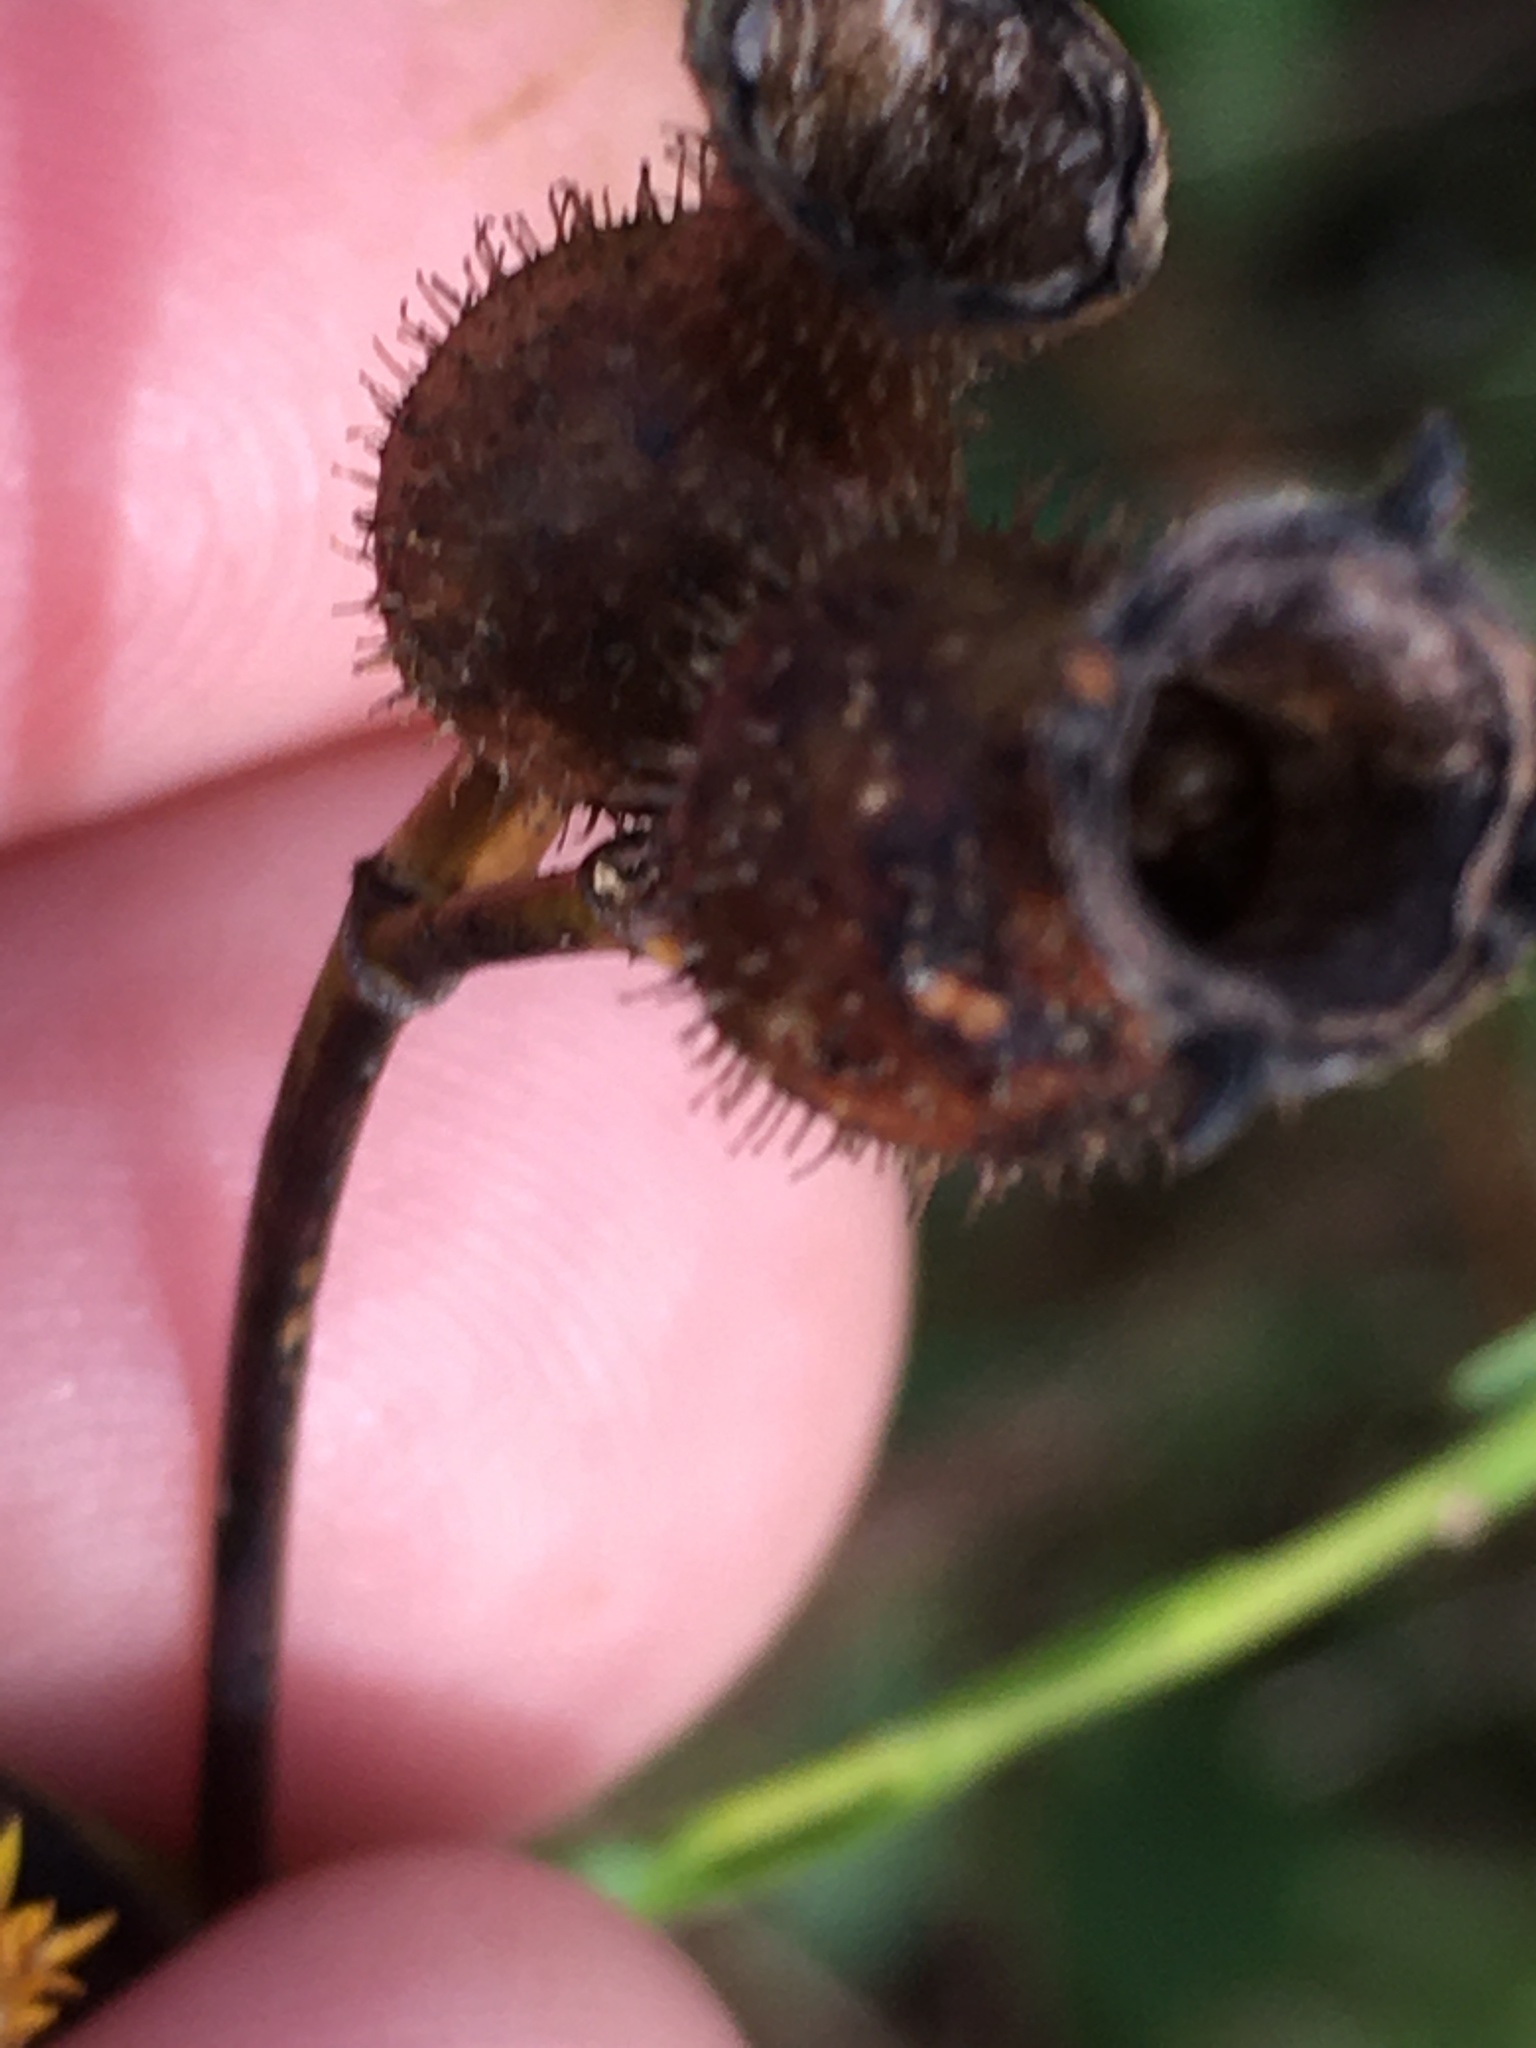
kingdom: Plantae
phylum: Tracheophyta
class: Magnoliopsida
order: Myrtales
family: Melastomataceae
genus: Rhexia
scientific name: Rhexia alifanus
